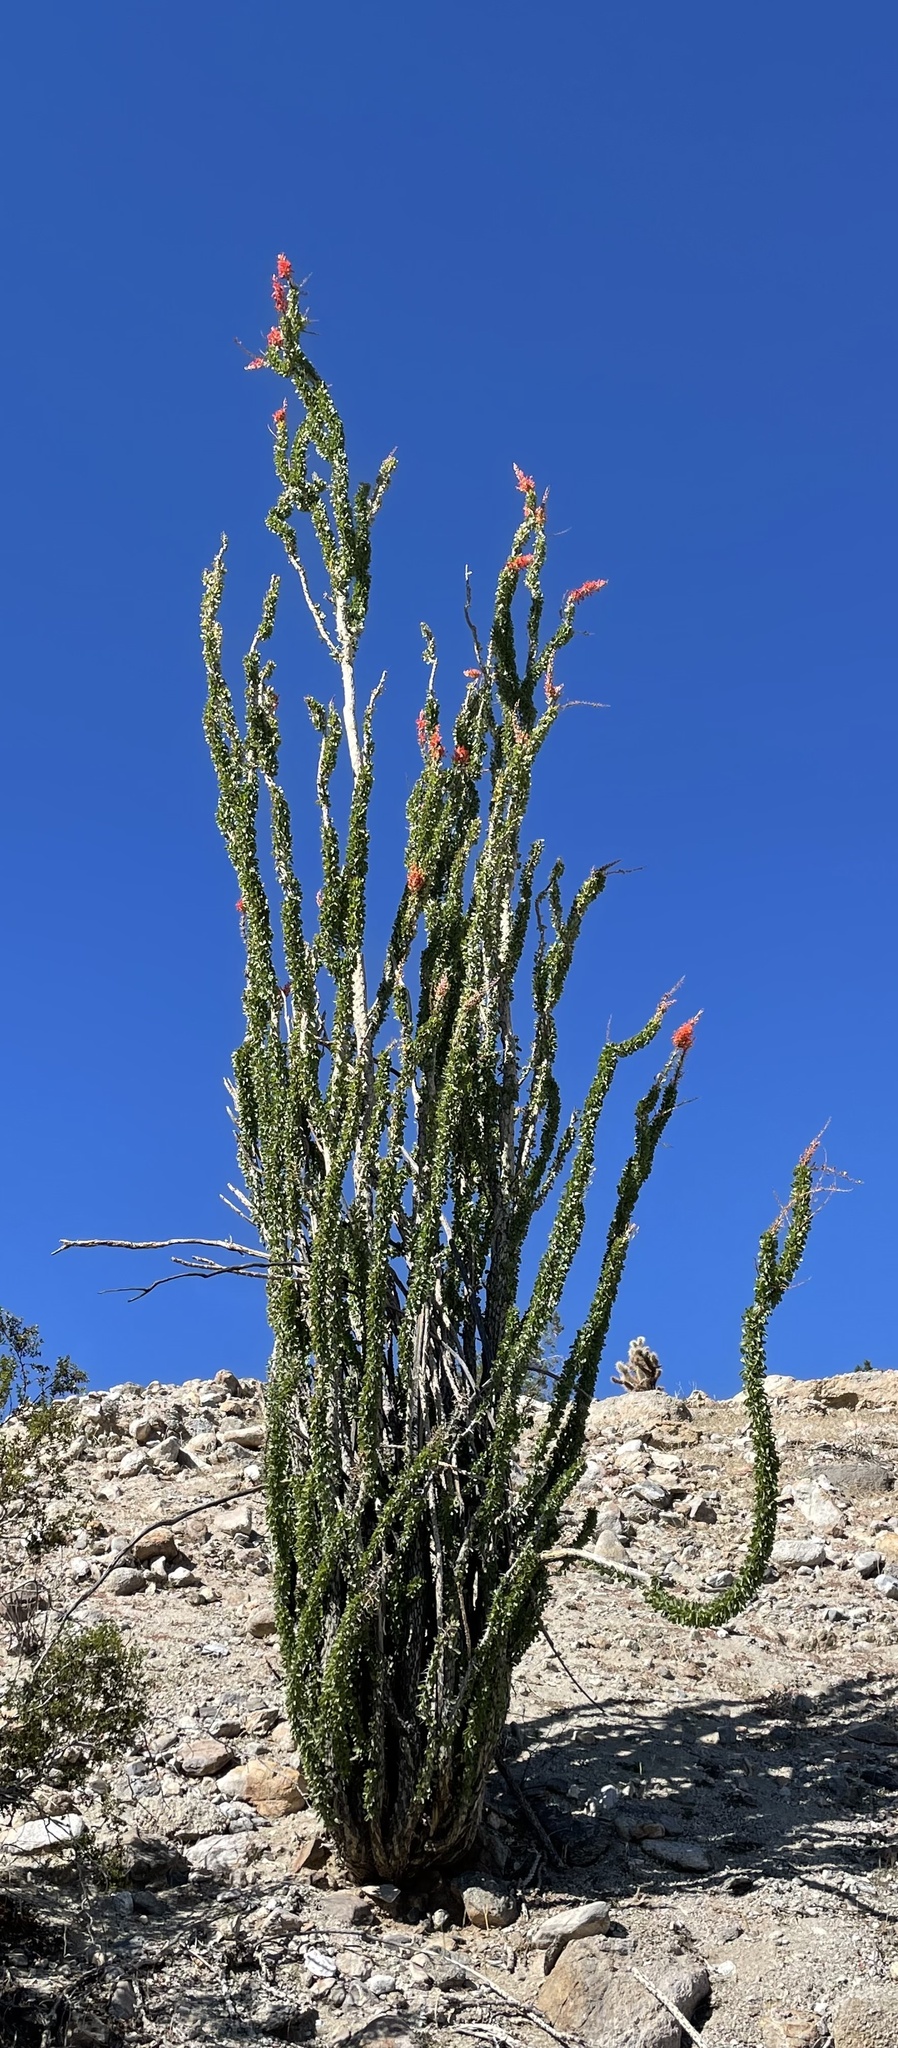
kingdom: Plantae
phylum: Tracheophyta
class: Magnoliopsida
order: Ericales
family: Fouquieriaceae
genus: Fouquieria
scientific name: Fouquieria splendens
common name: Vine-cactus
